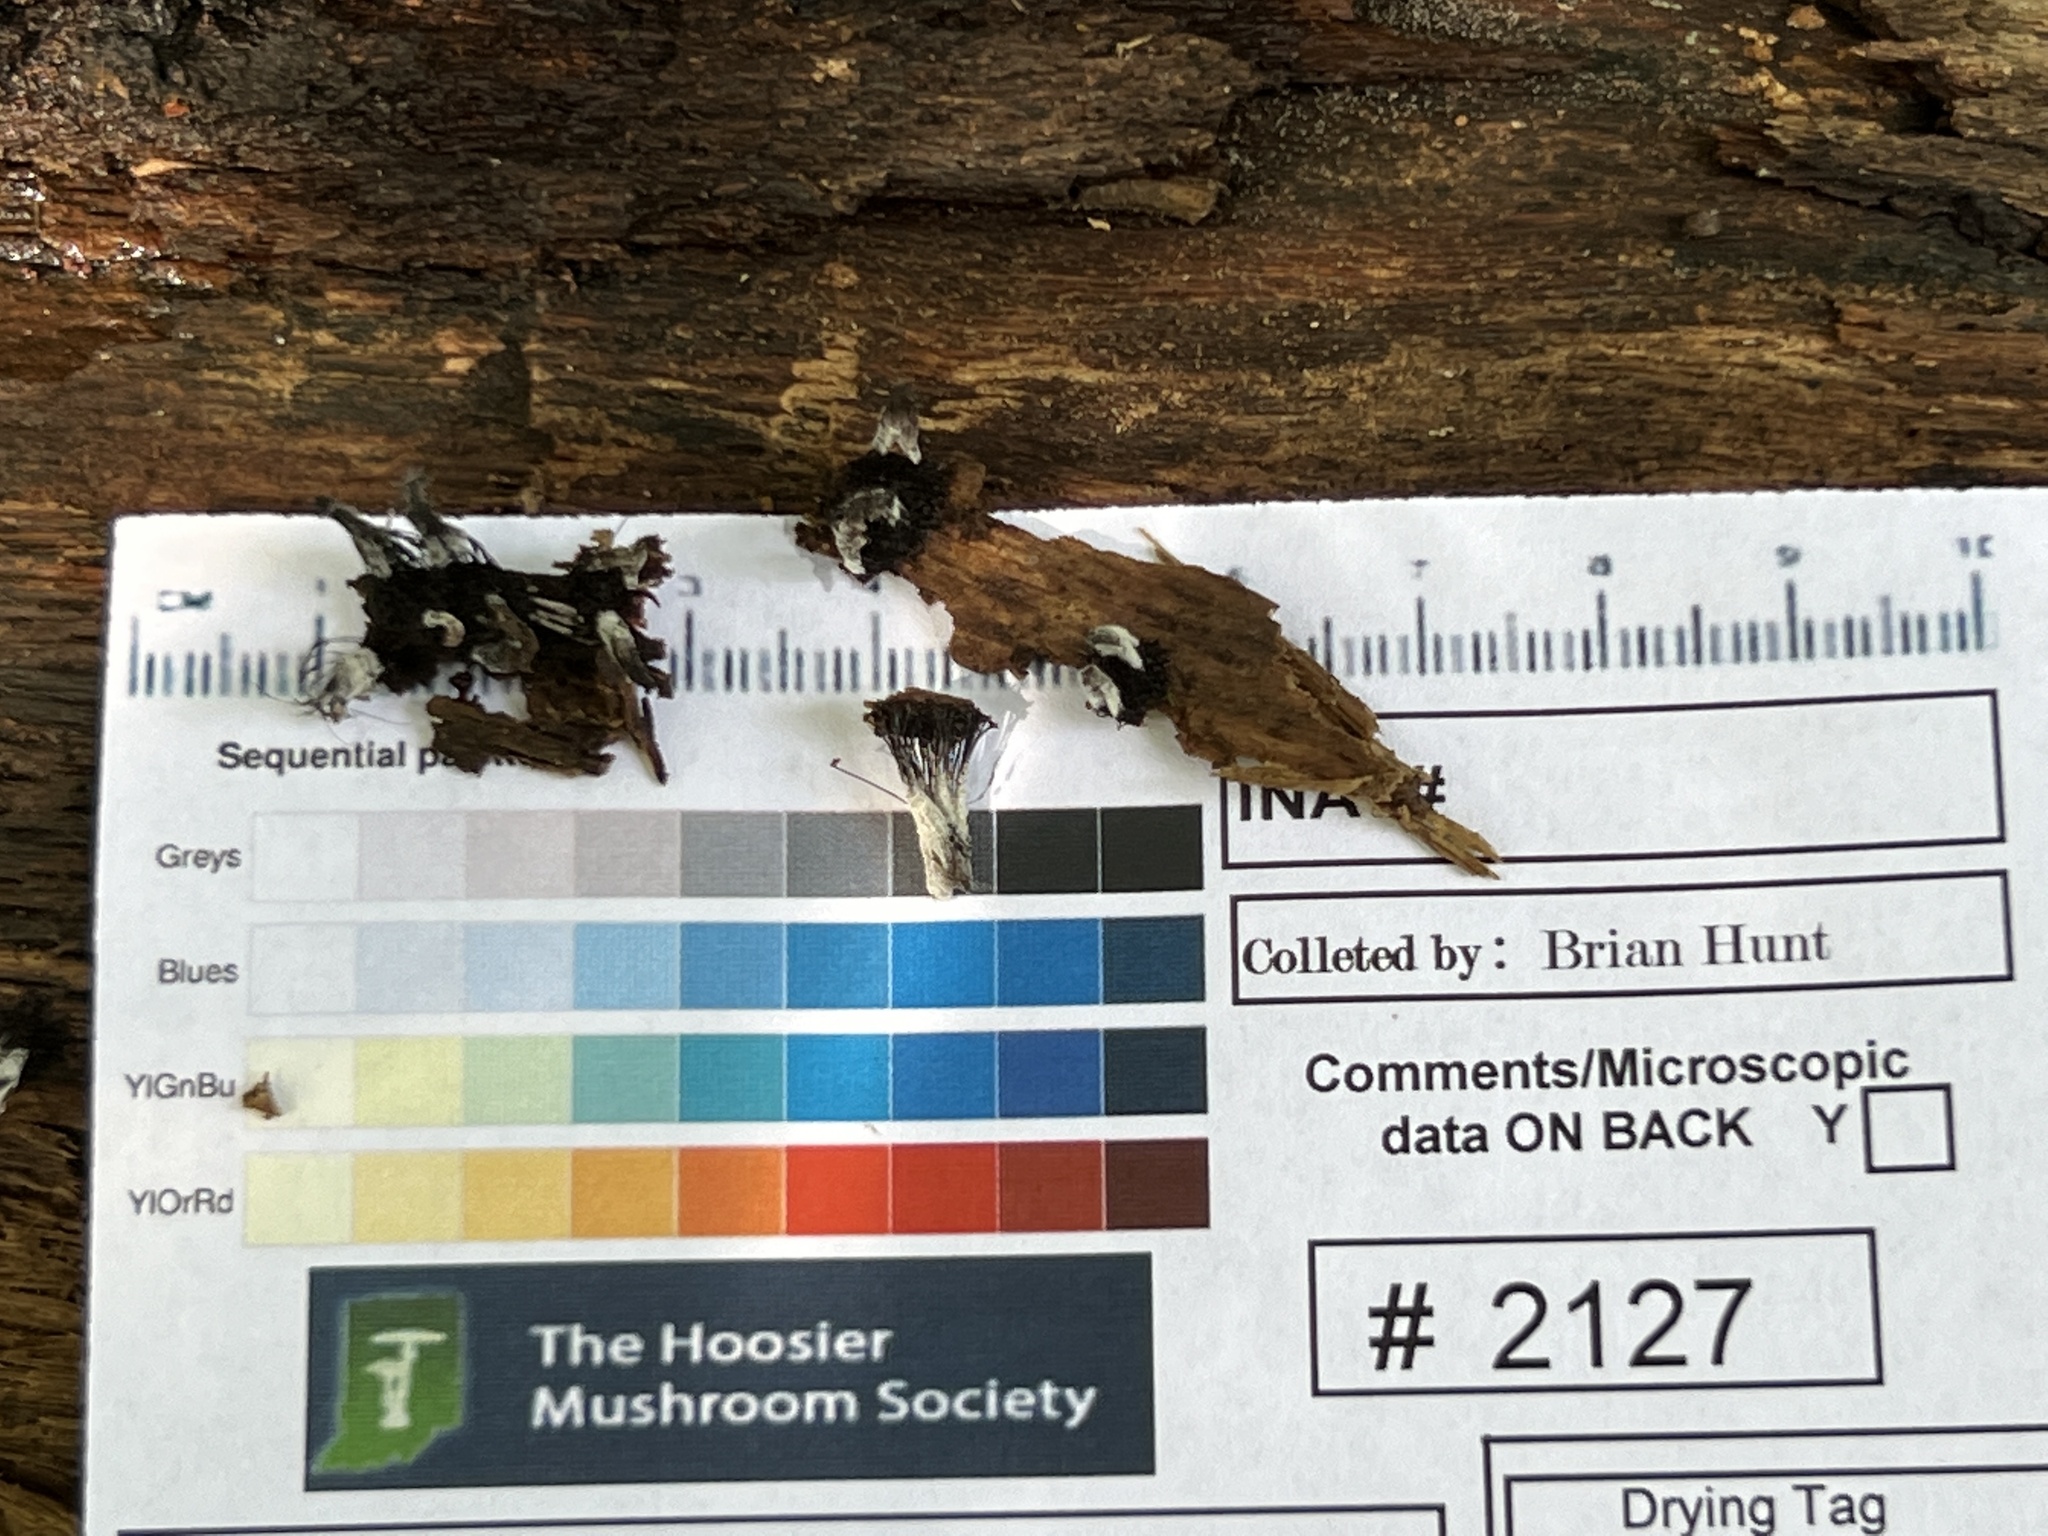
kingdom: Fungi
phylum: Ascomycota
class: Sordariomycetes
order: Hypocreales
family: Bionectriaceae
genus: Nectriopsis
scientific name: Nectriopsis rexiana
